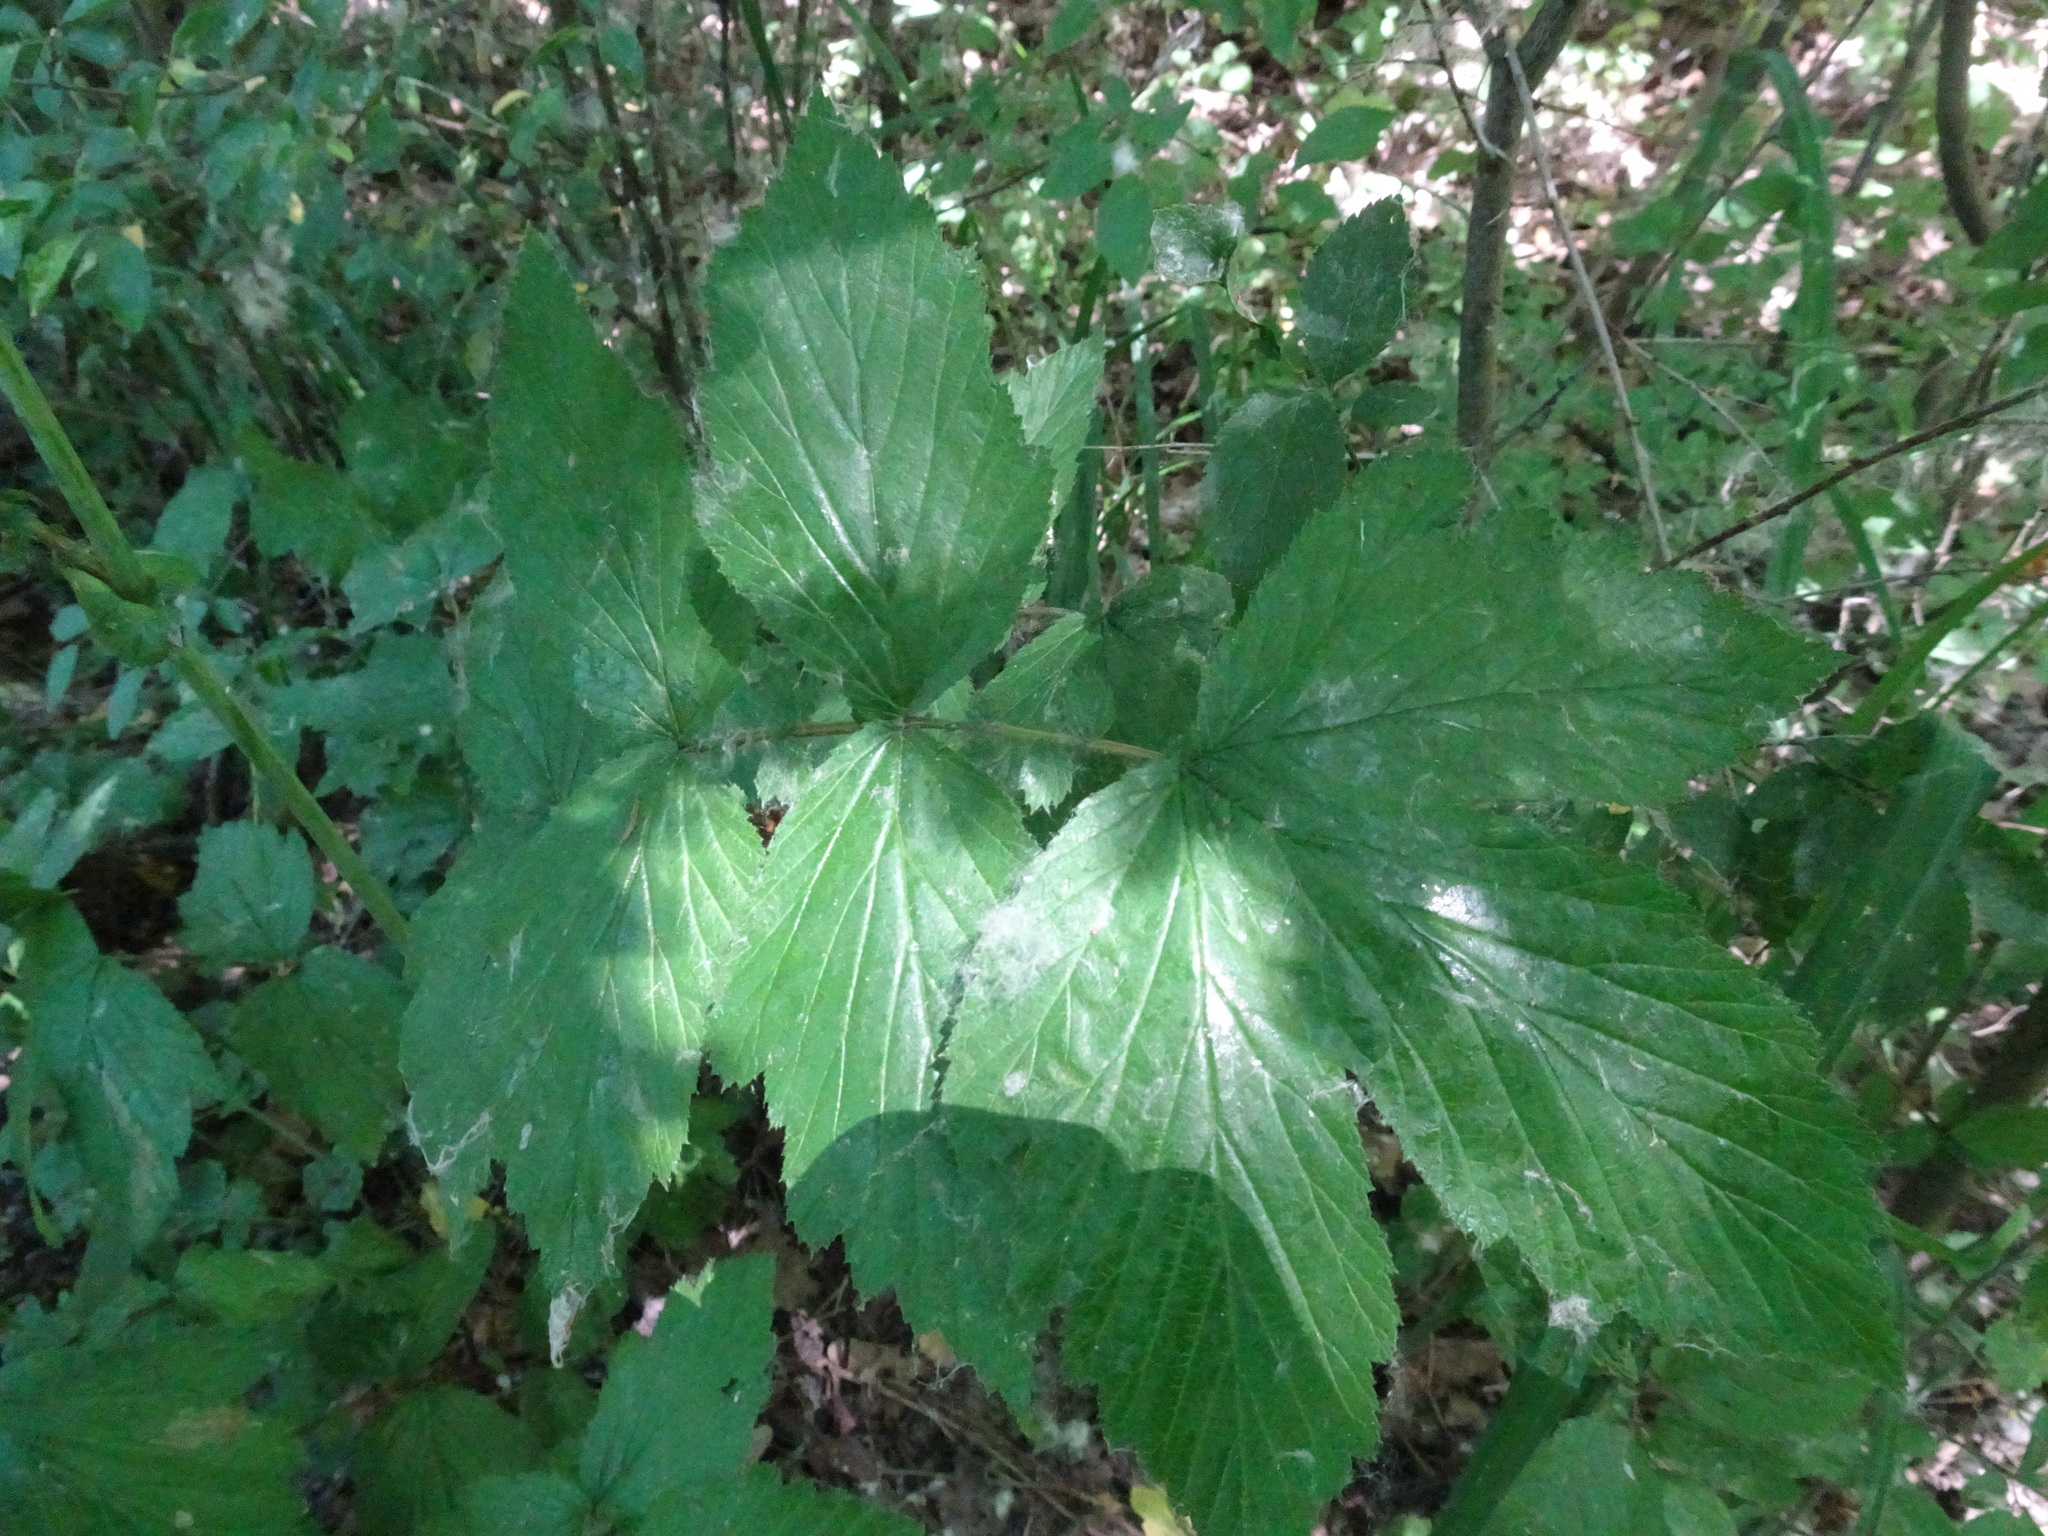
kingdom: Plantae
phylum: Tracheophyta
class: Magnoliopsida
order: Rosales
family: Rosaceae
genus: Filipendula
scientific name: Filipendula ulmaria
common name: Meadowsweet
